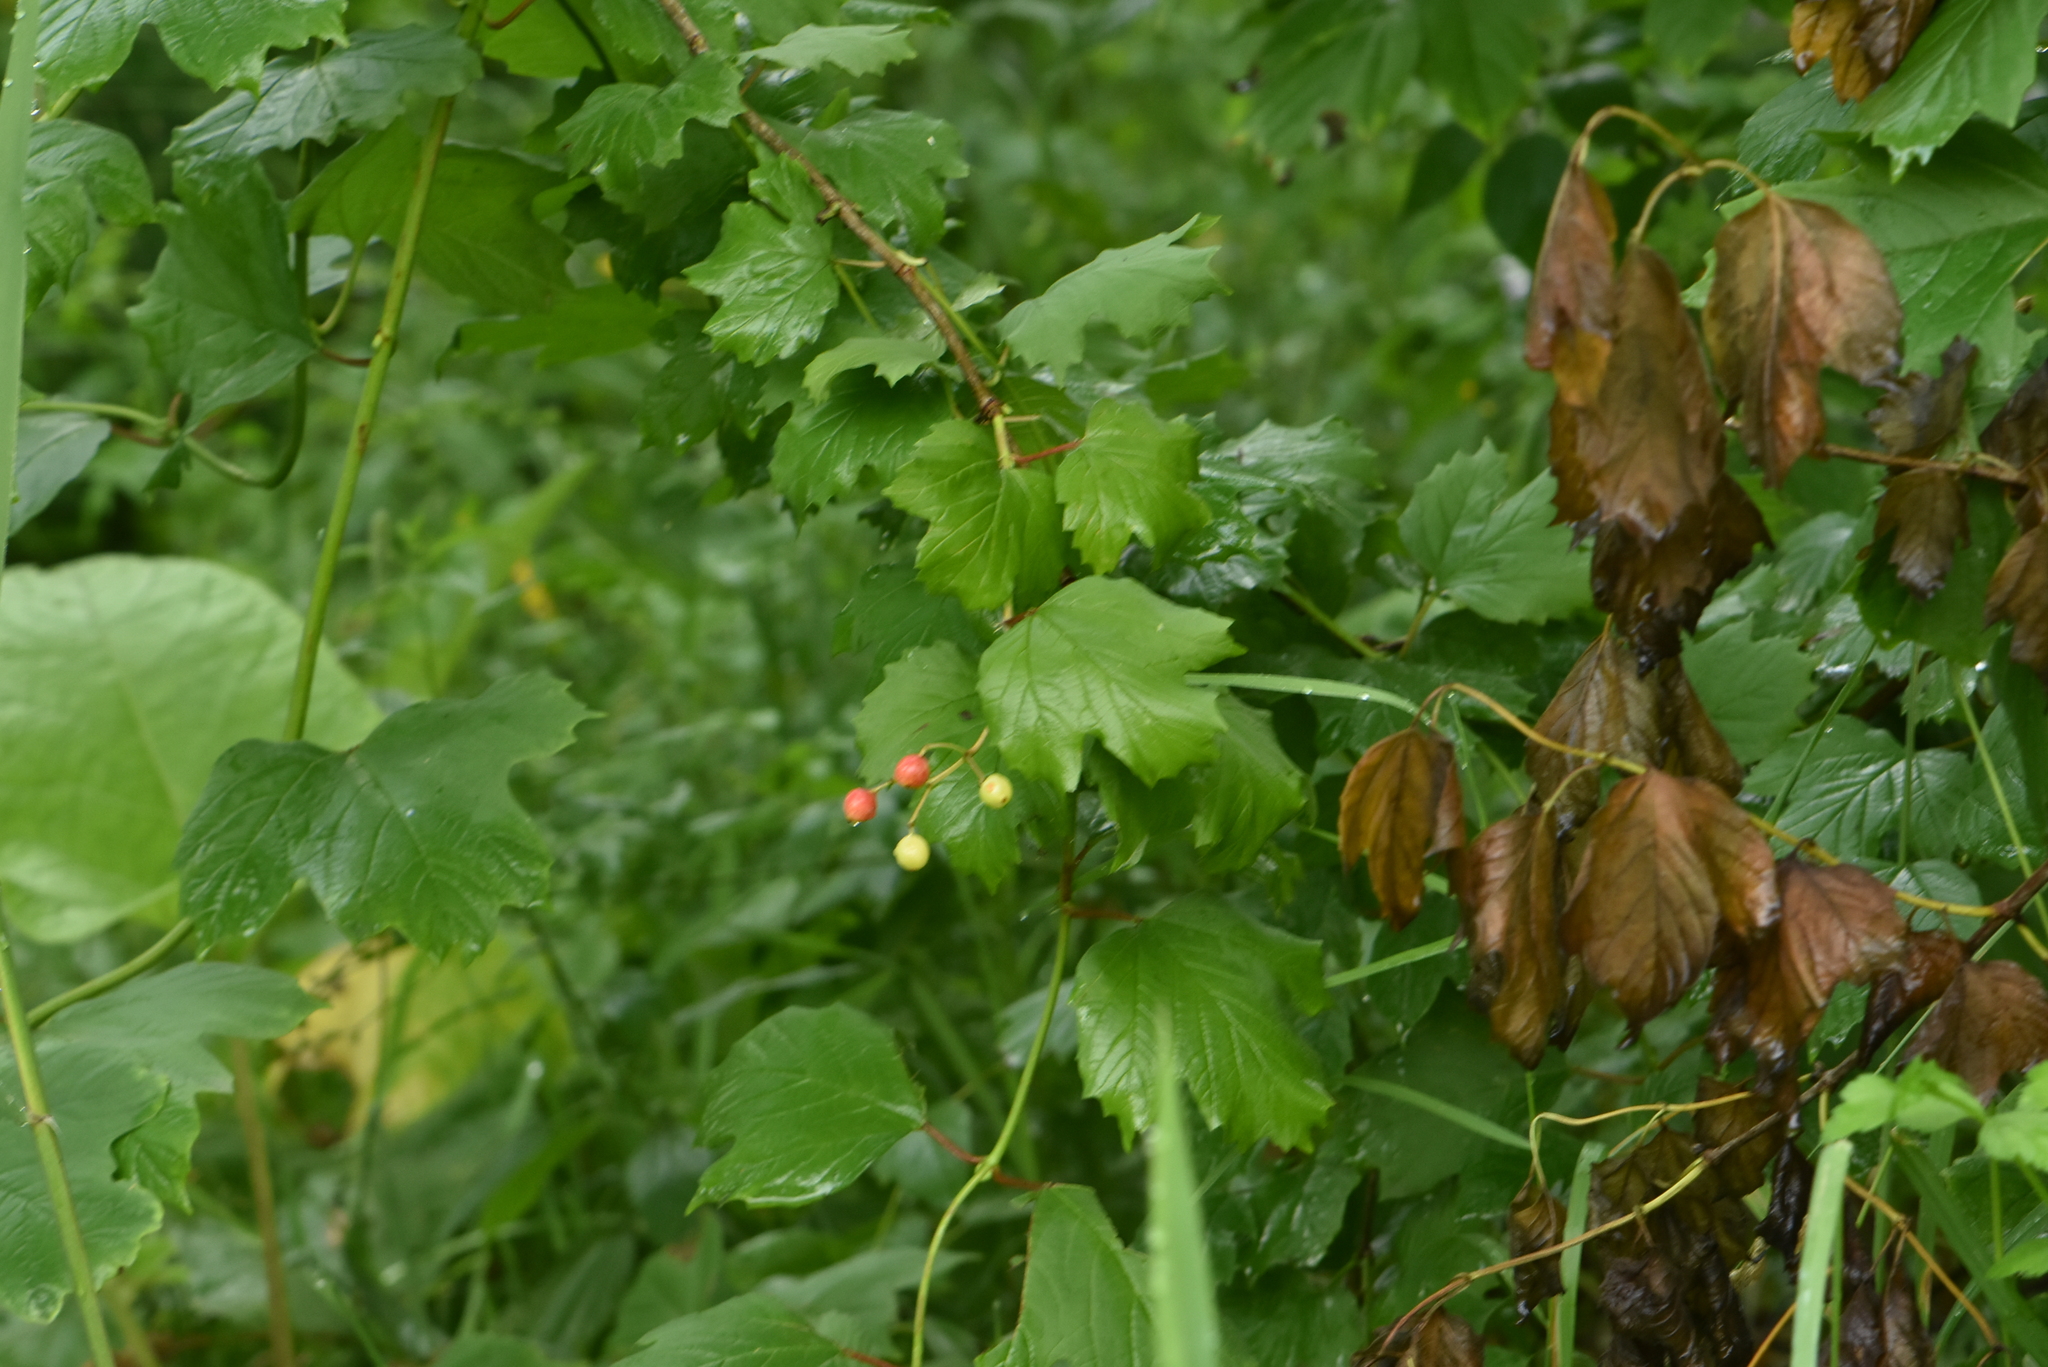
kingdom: Plantae
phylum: Tracheophyta
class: Magnoliopsida
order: Dipsacales
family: Viburnaceae
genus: Viburnum
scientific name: Viburnum opulus
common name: Guelder-rose
